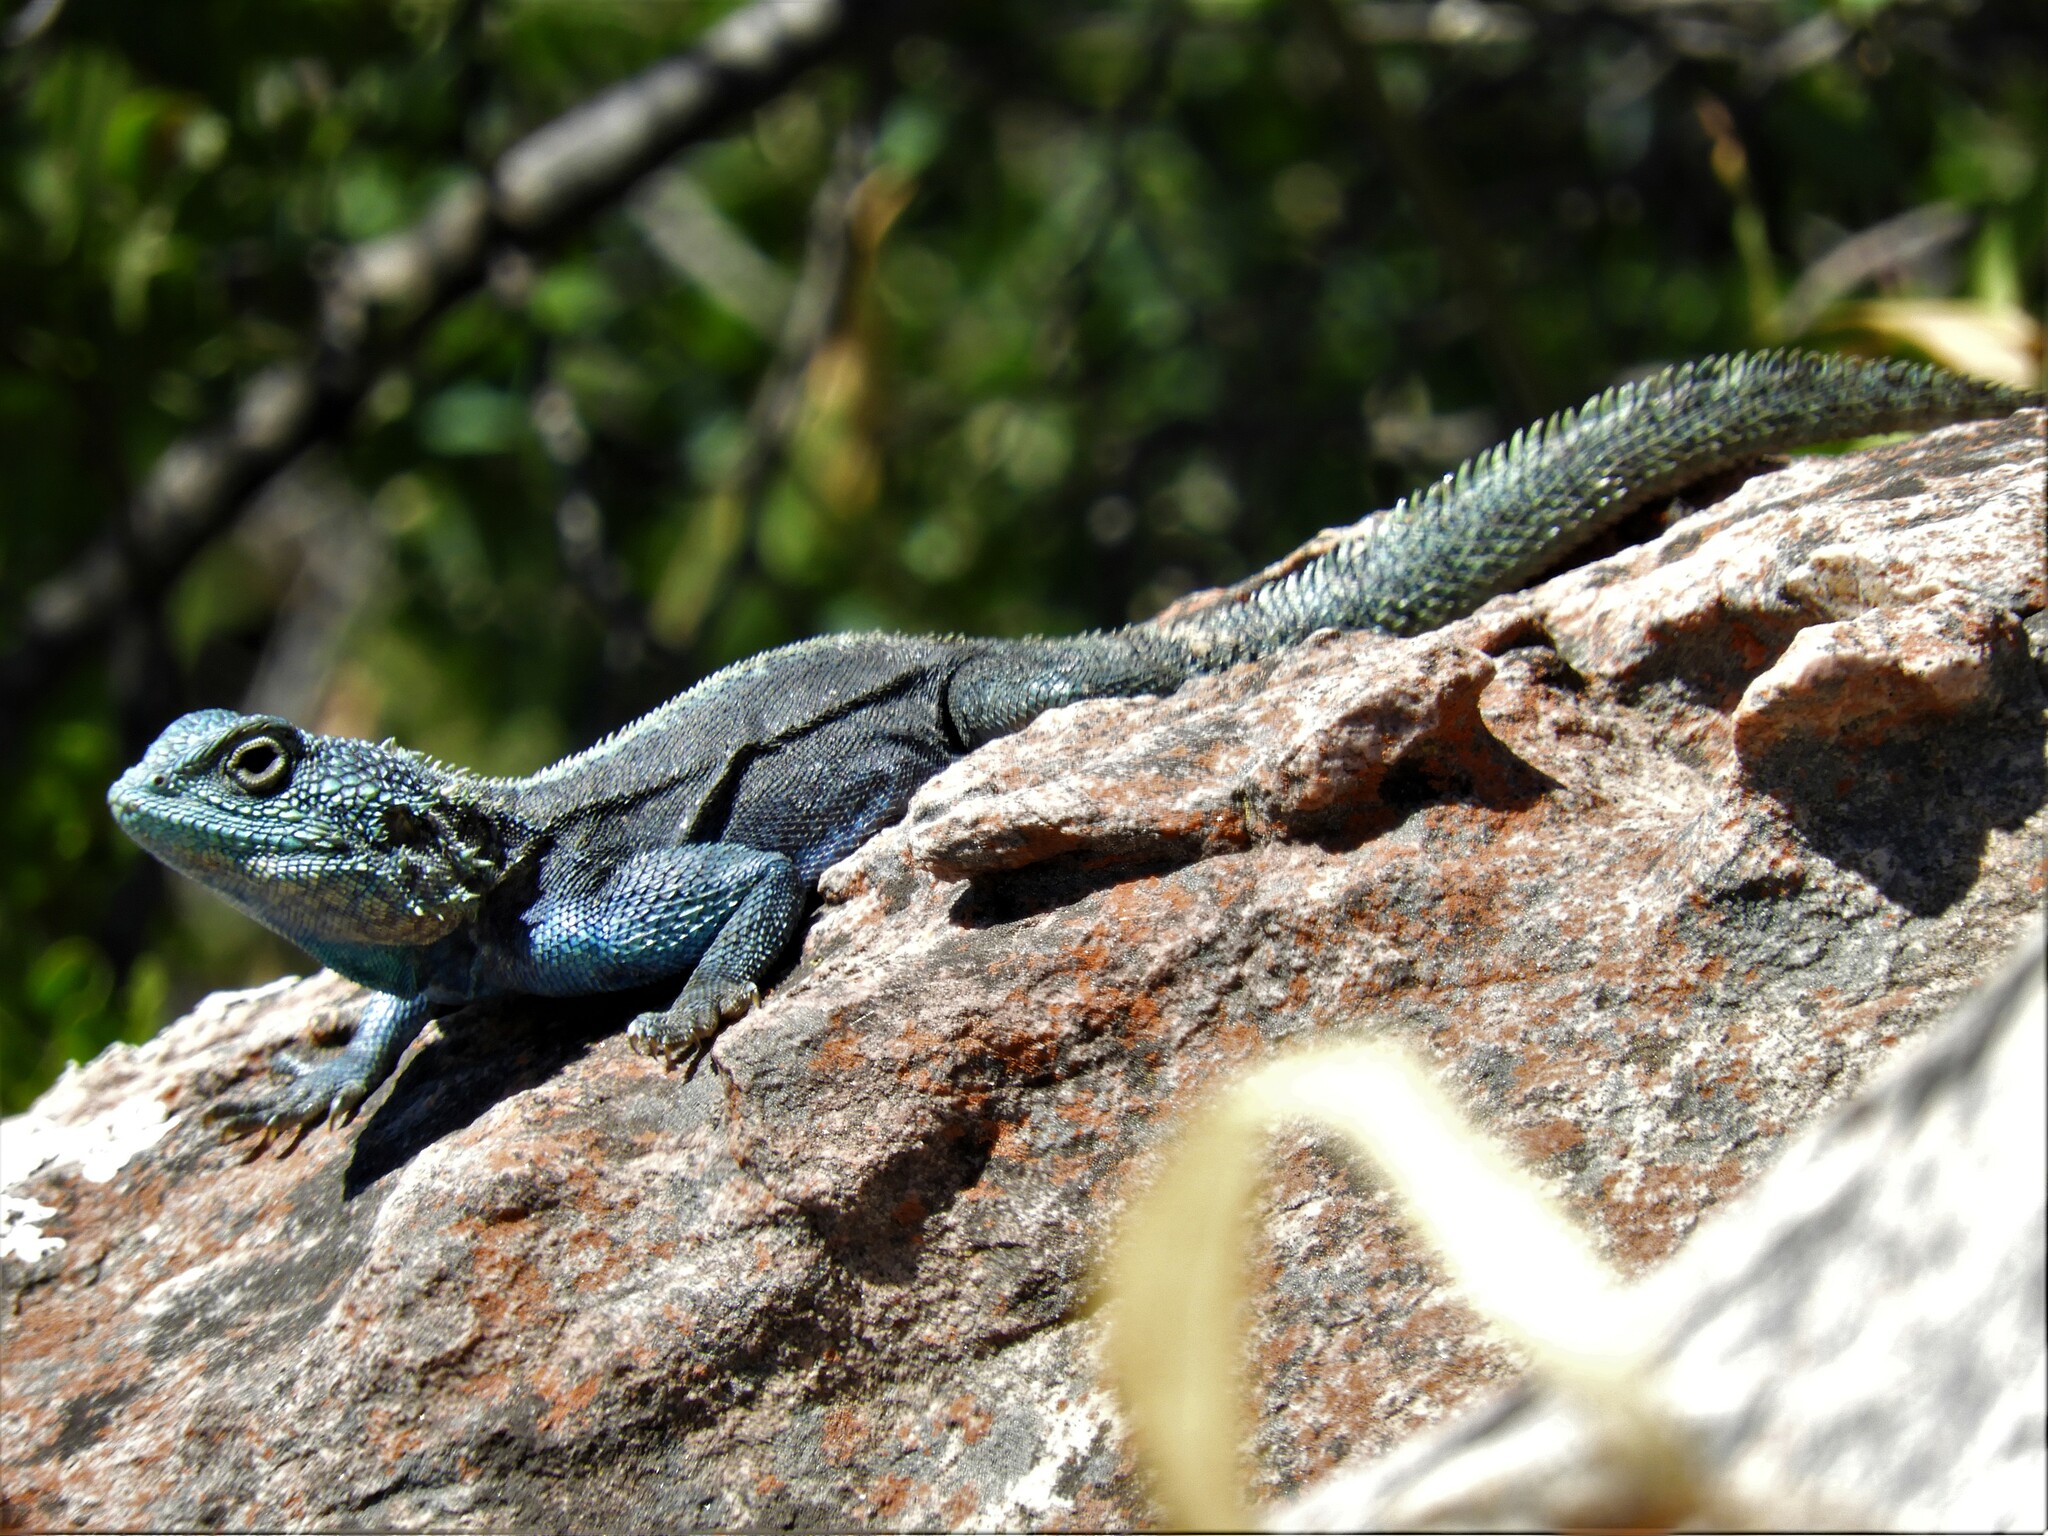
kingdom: Animalia
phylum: Chordata
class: Squamata
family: Agamidae
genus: Agama
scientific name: Agama atra
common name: Southern african rock agama
